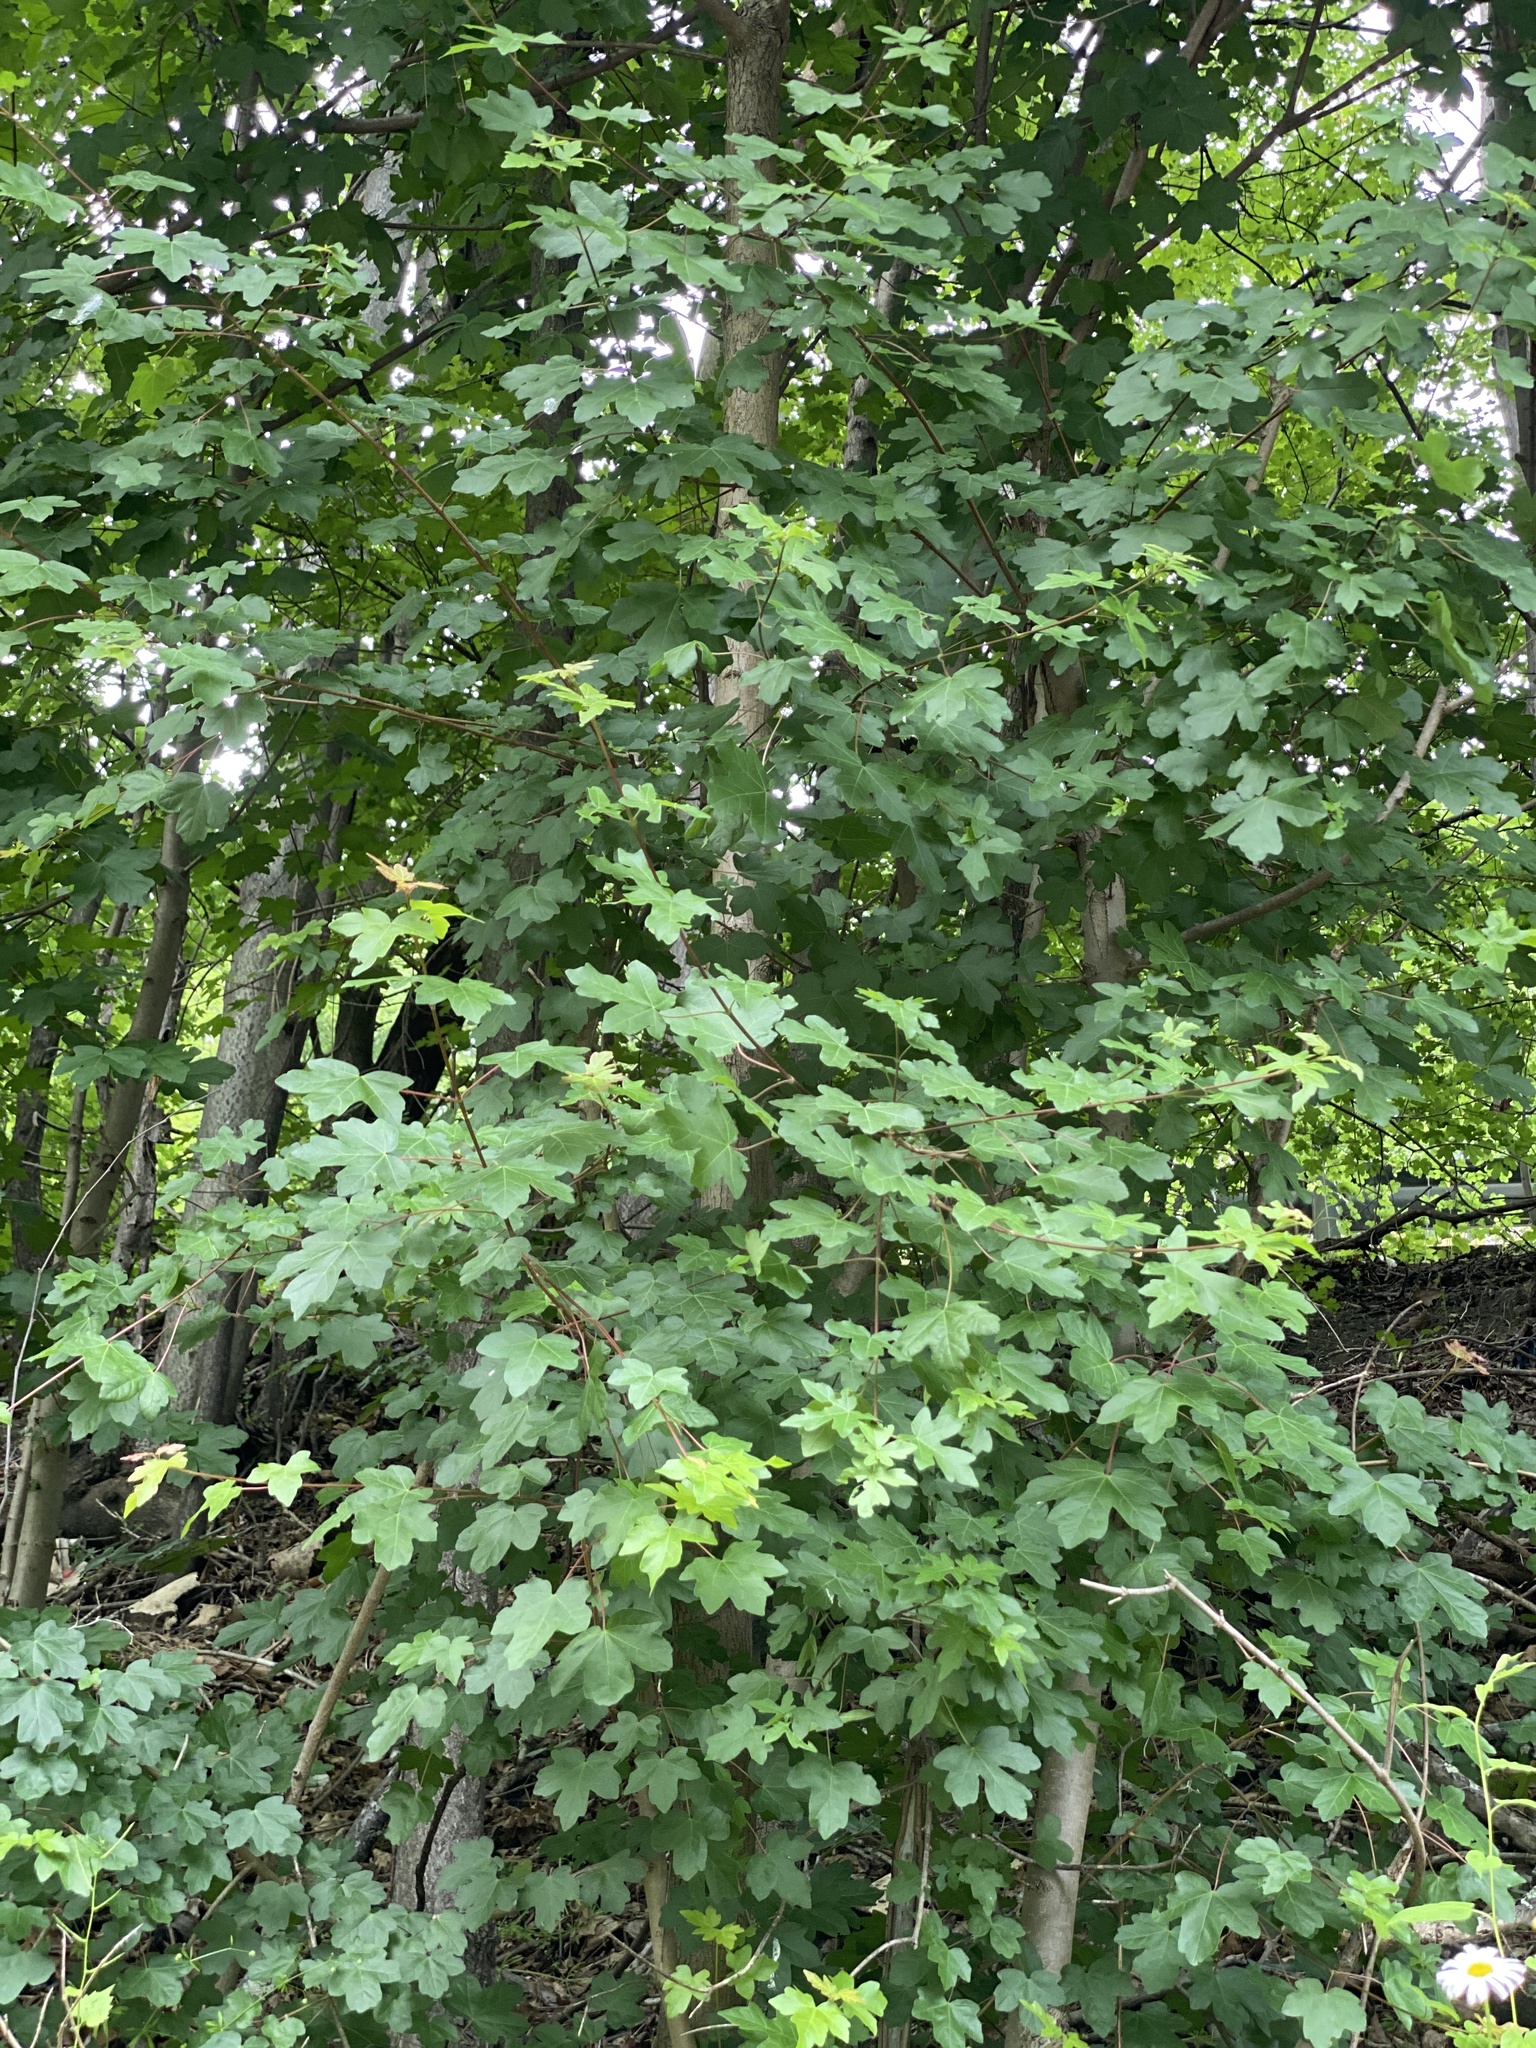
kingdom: Plantae
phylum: Tracheophyta
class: Magnoliopsida
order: Sapindales
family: Sapindaceae
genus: Acer
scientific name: Acer campestre
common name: Field maple
